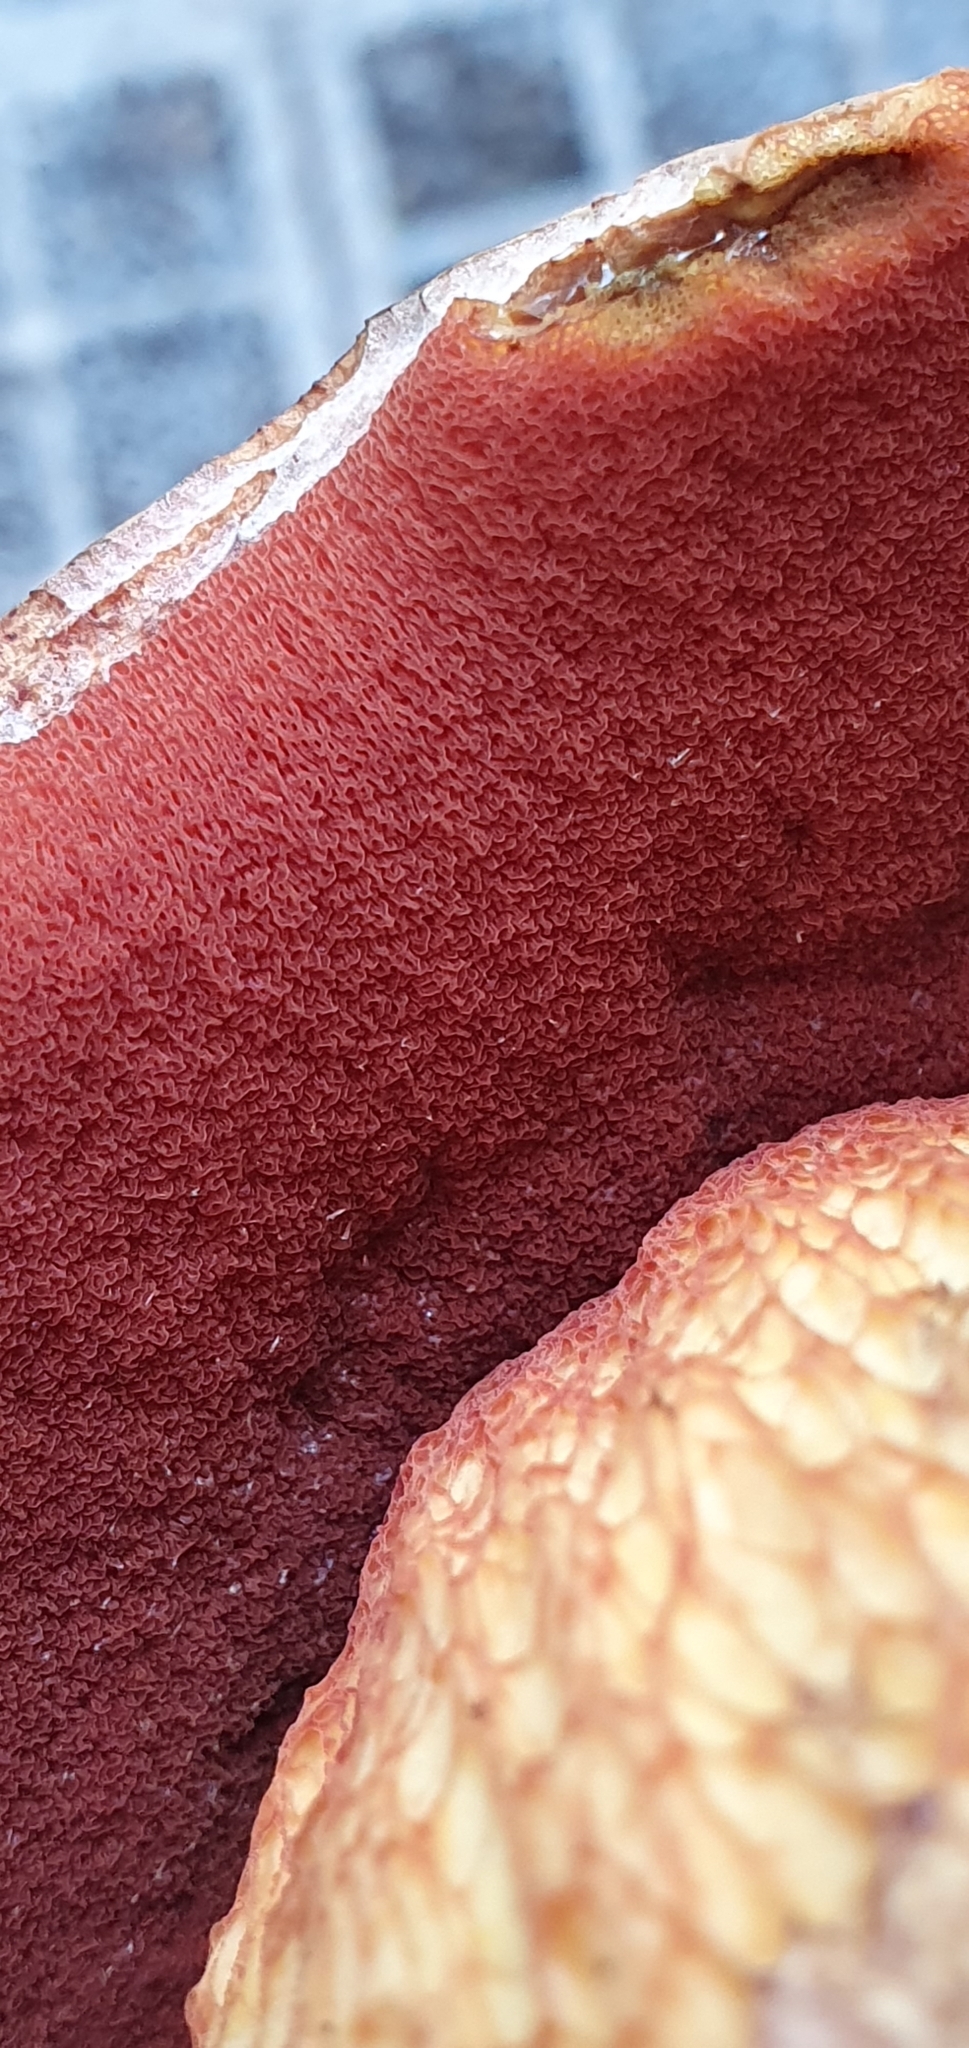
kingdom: Fungi
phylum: Basidiomycota
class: Agaricomycetes
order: Boletales
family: Boletaceae
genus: Suillellus
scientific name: Suillellus luridus
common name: Lurid bolete
